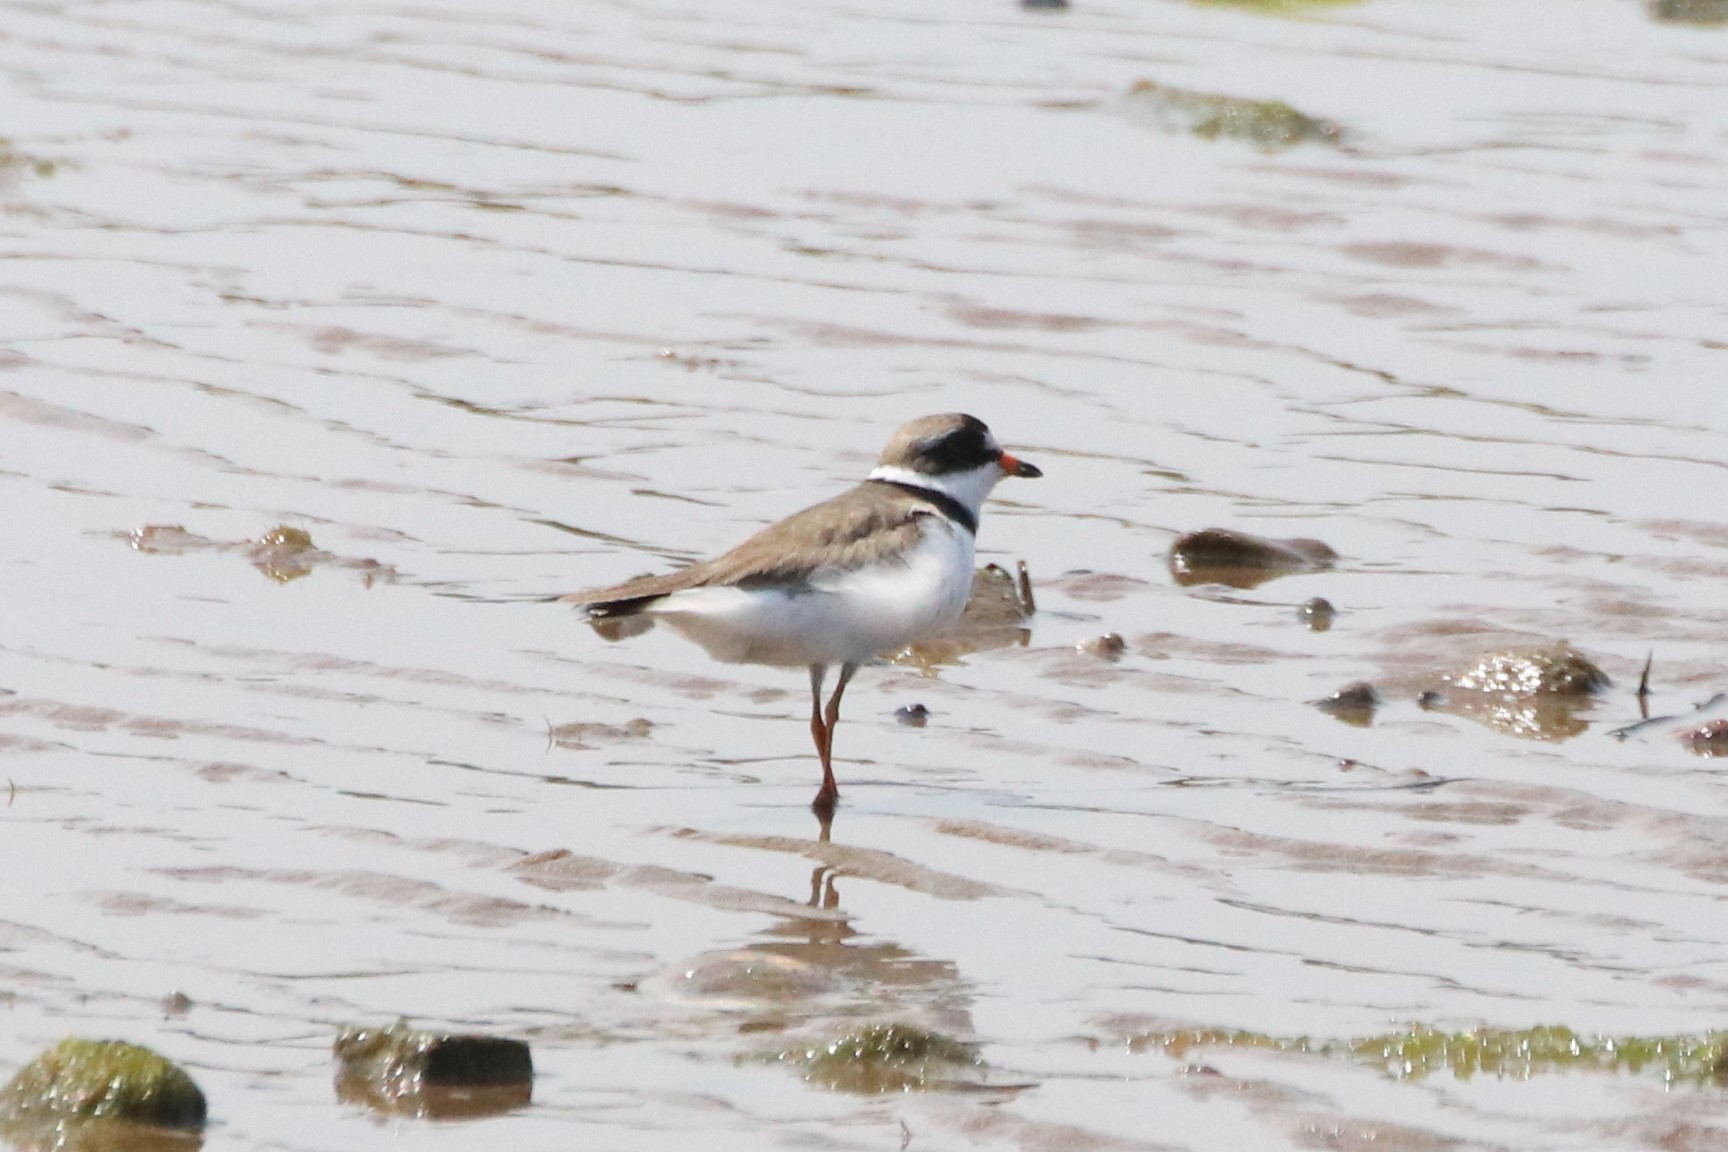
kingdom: Animalia
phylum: Chordata
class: Aves
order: Charadriiformes
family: Charadriidae
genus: Charadrius
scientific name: Charadrius semipalmatus
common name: Semipalmated plover
